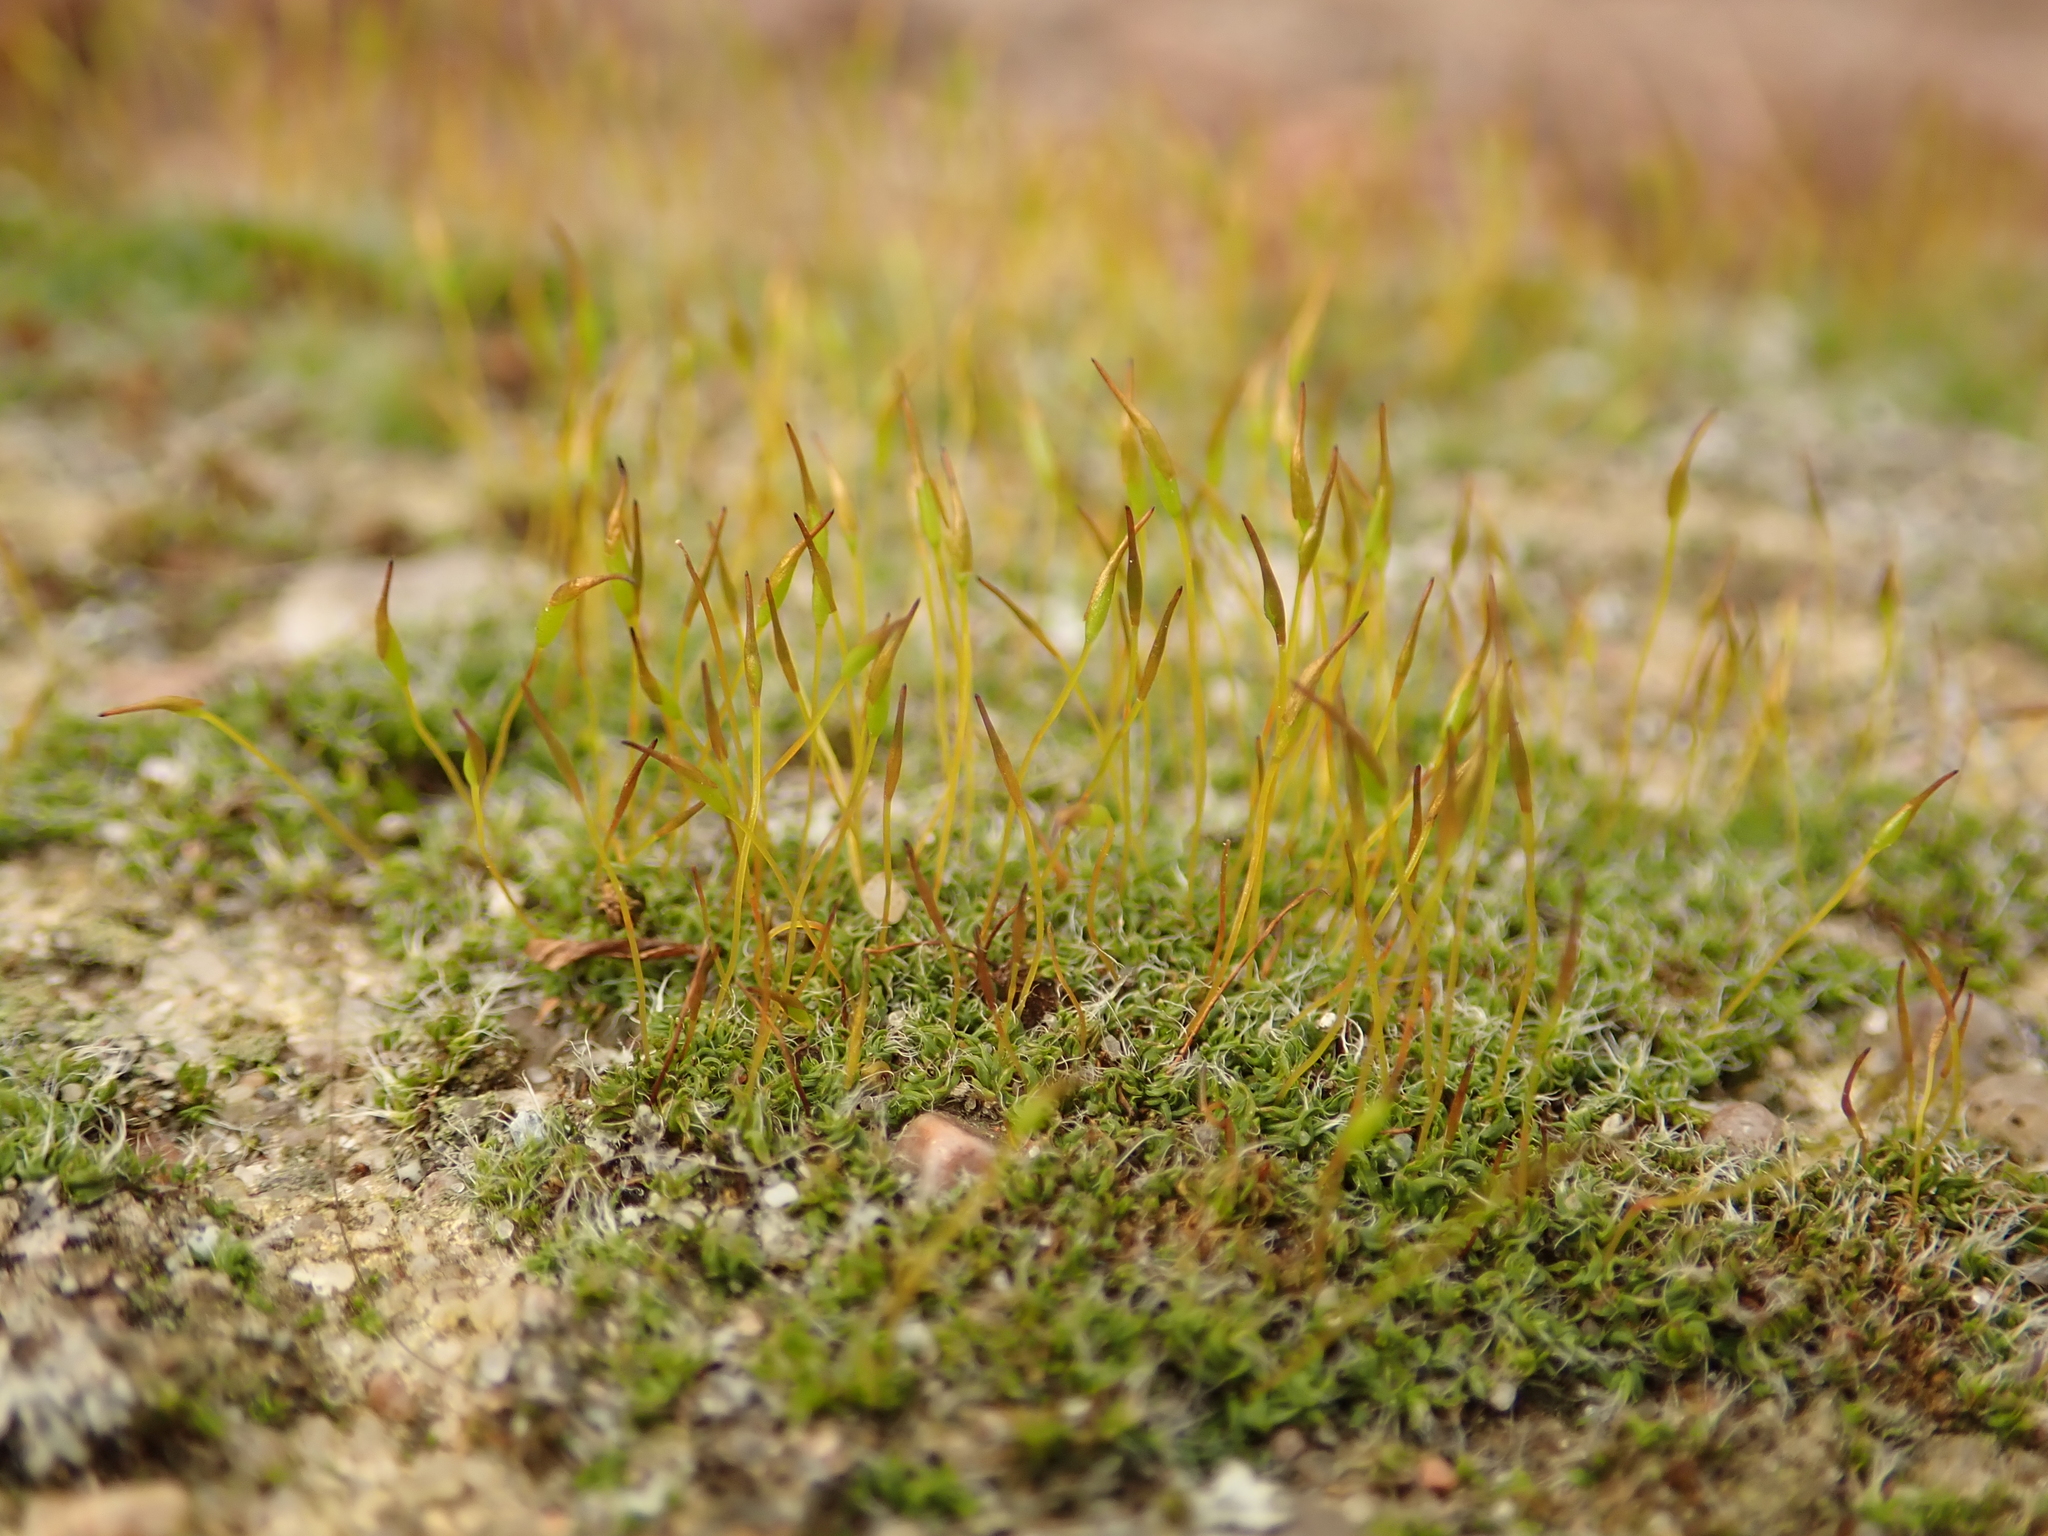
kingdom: Plantae
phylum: Bryophyta
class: Bryopsida
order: Pottiales
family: Pottiaceae
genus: Tortula
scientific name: Tortula muralis
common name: Wall screw-moss
